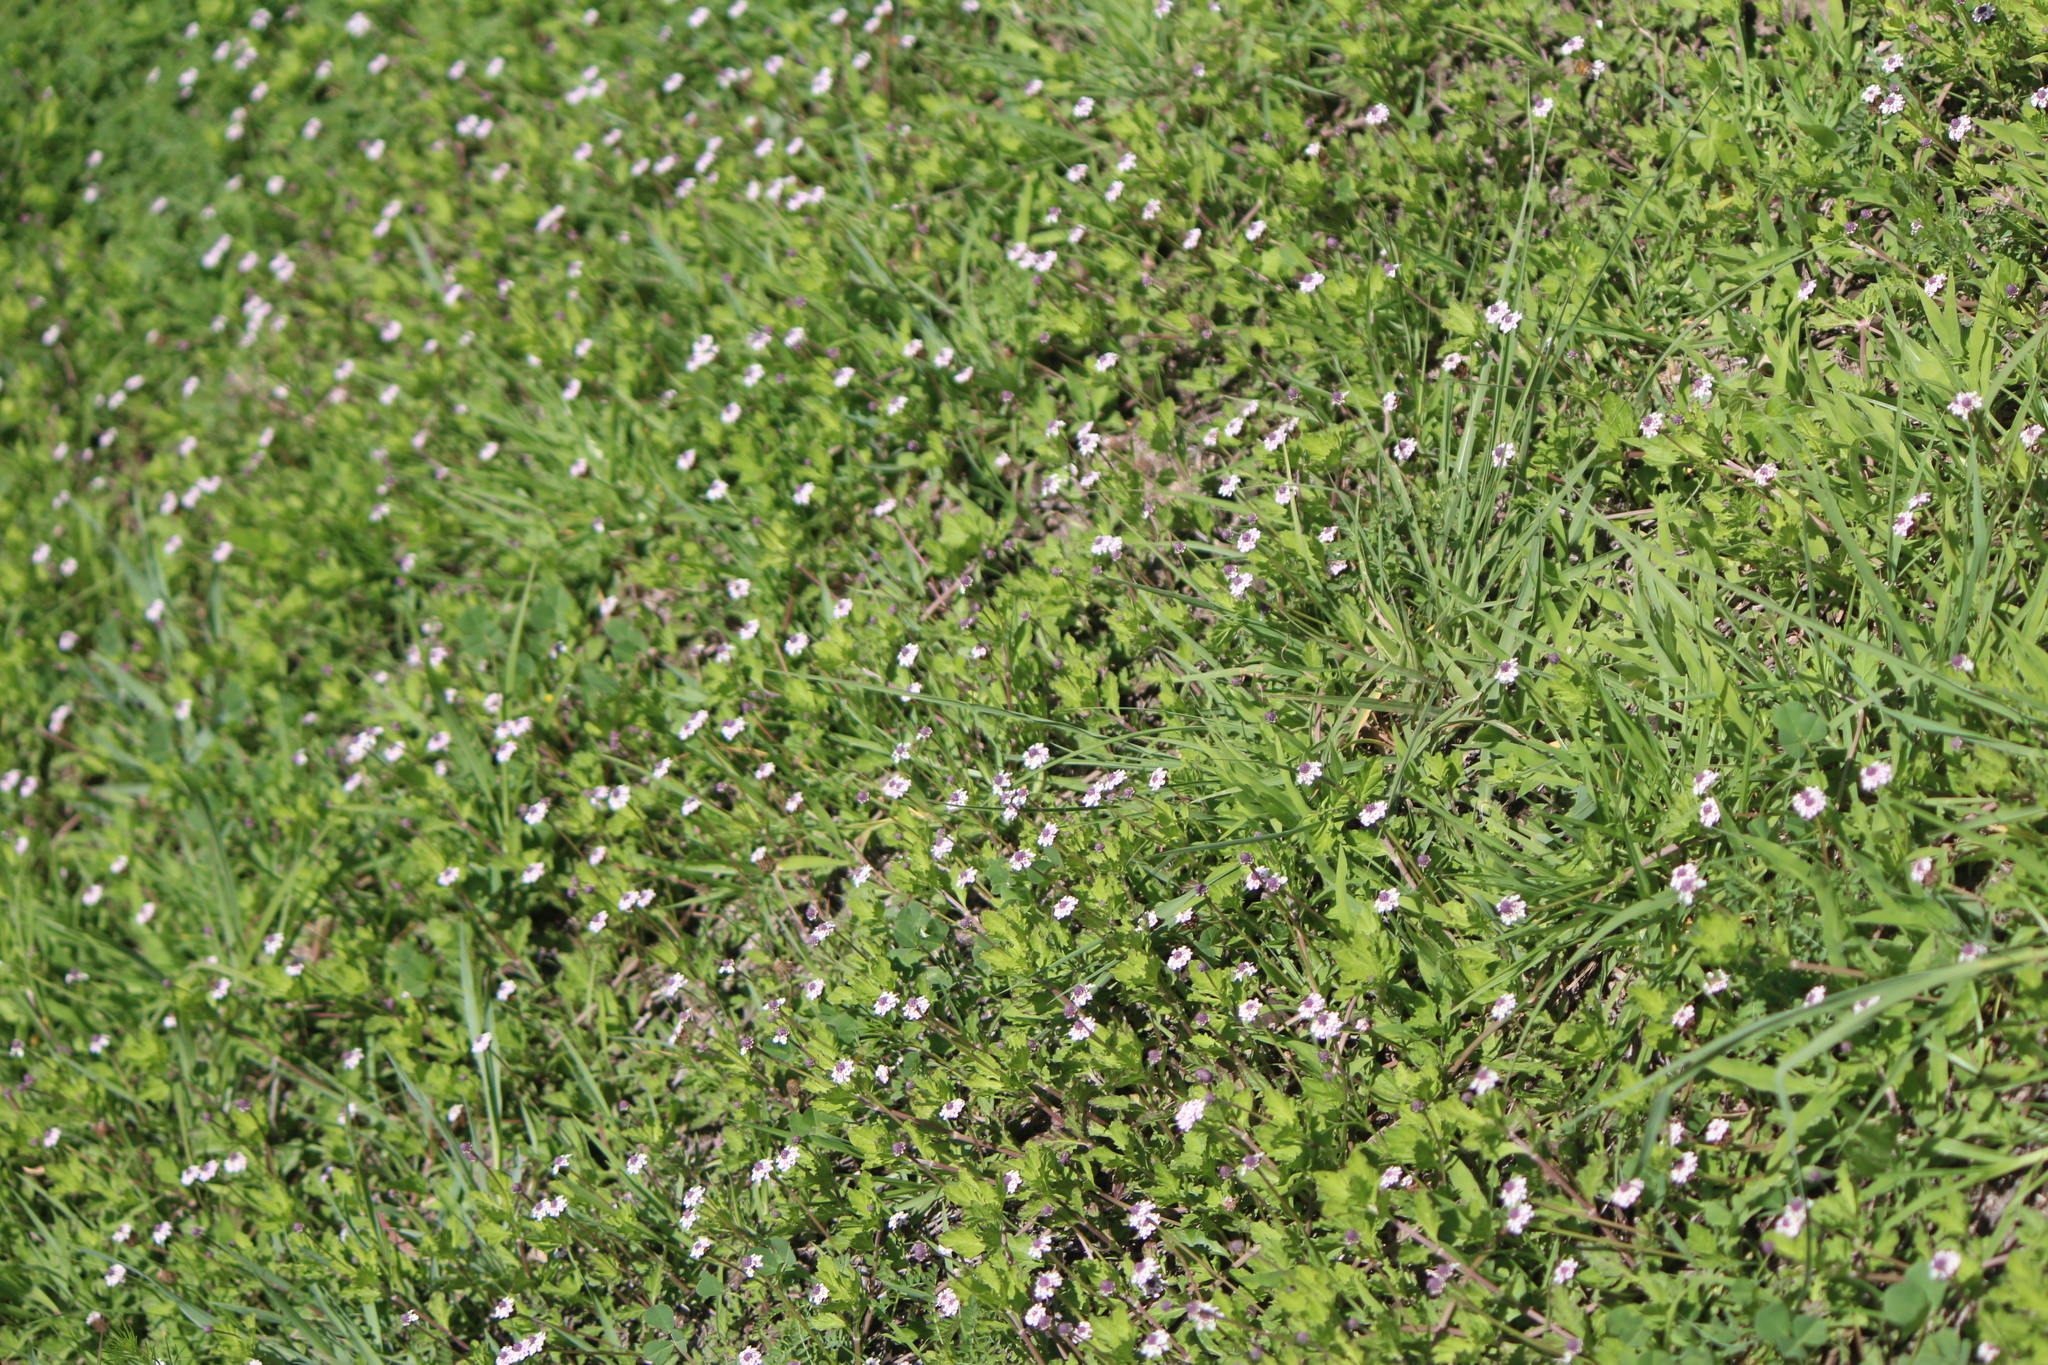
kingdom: Plantae
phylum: Tracheophyta
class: Magnoliopsida
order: Lamiales
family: Verbenaceae
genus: Phyla
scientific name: Phyla nodiflora
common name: Frogfruit
